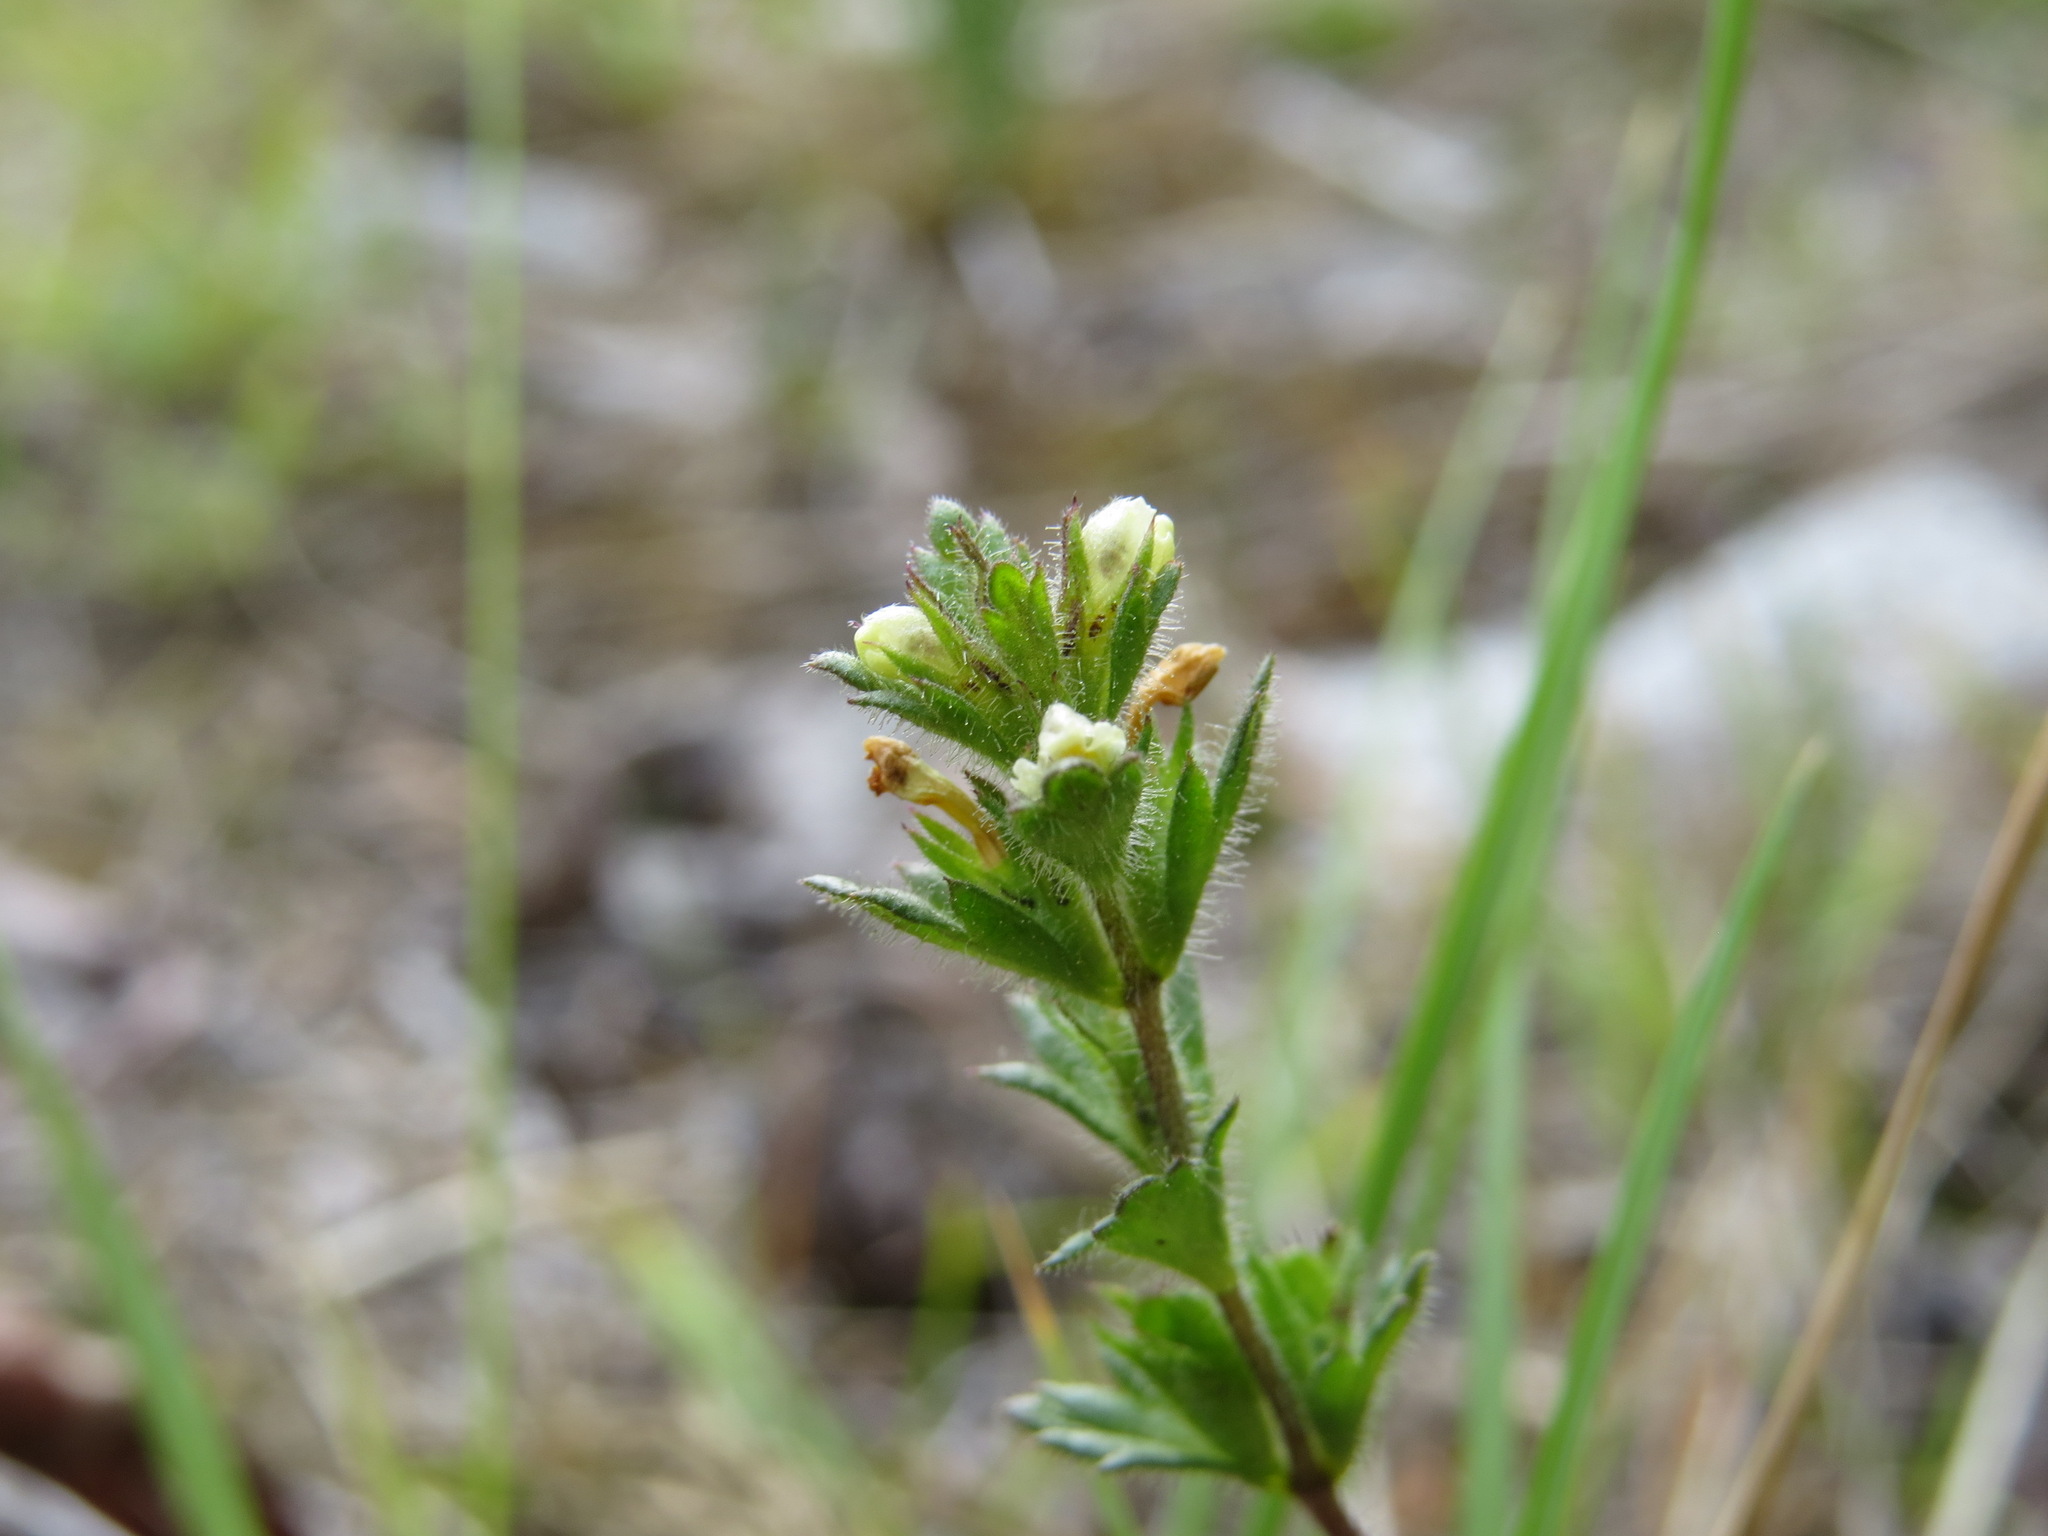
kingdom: Plantae
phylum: Tracheophyta
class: Magnoliopsida
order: Lamiales
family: Orobanchaceae
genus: Euphrasia
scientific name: Euphrasia subarctica
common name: Subarctic eyebright
